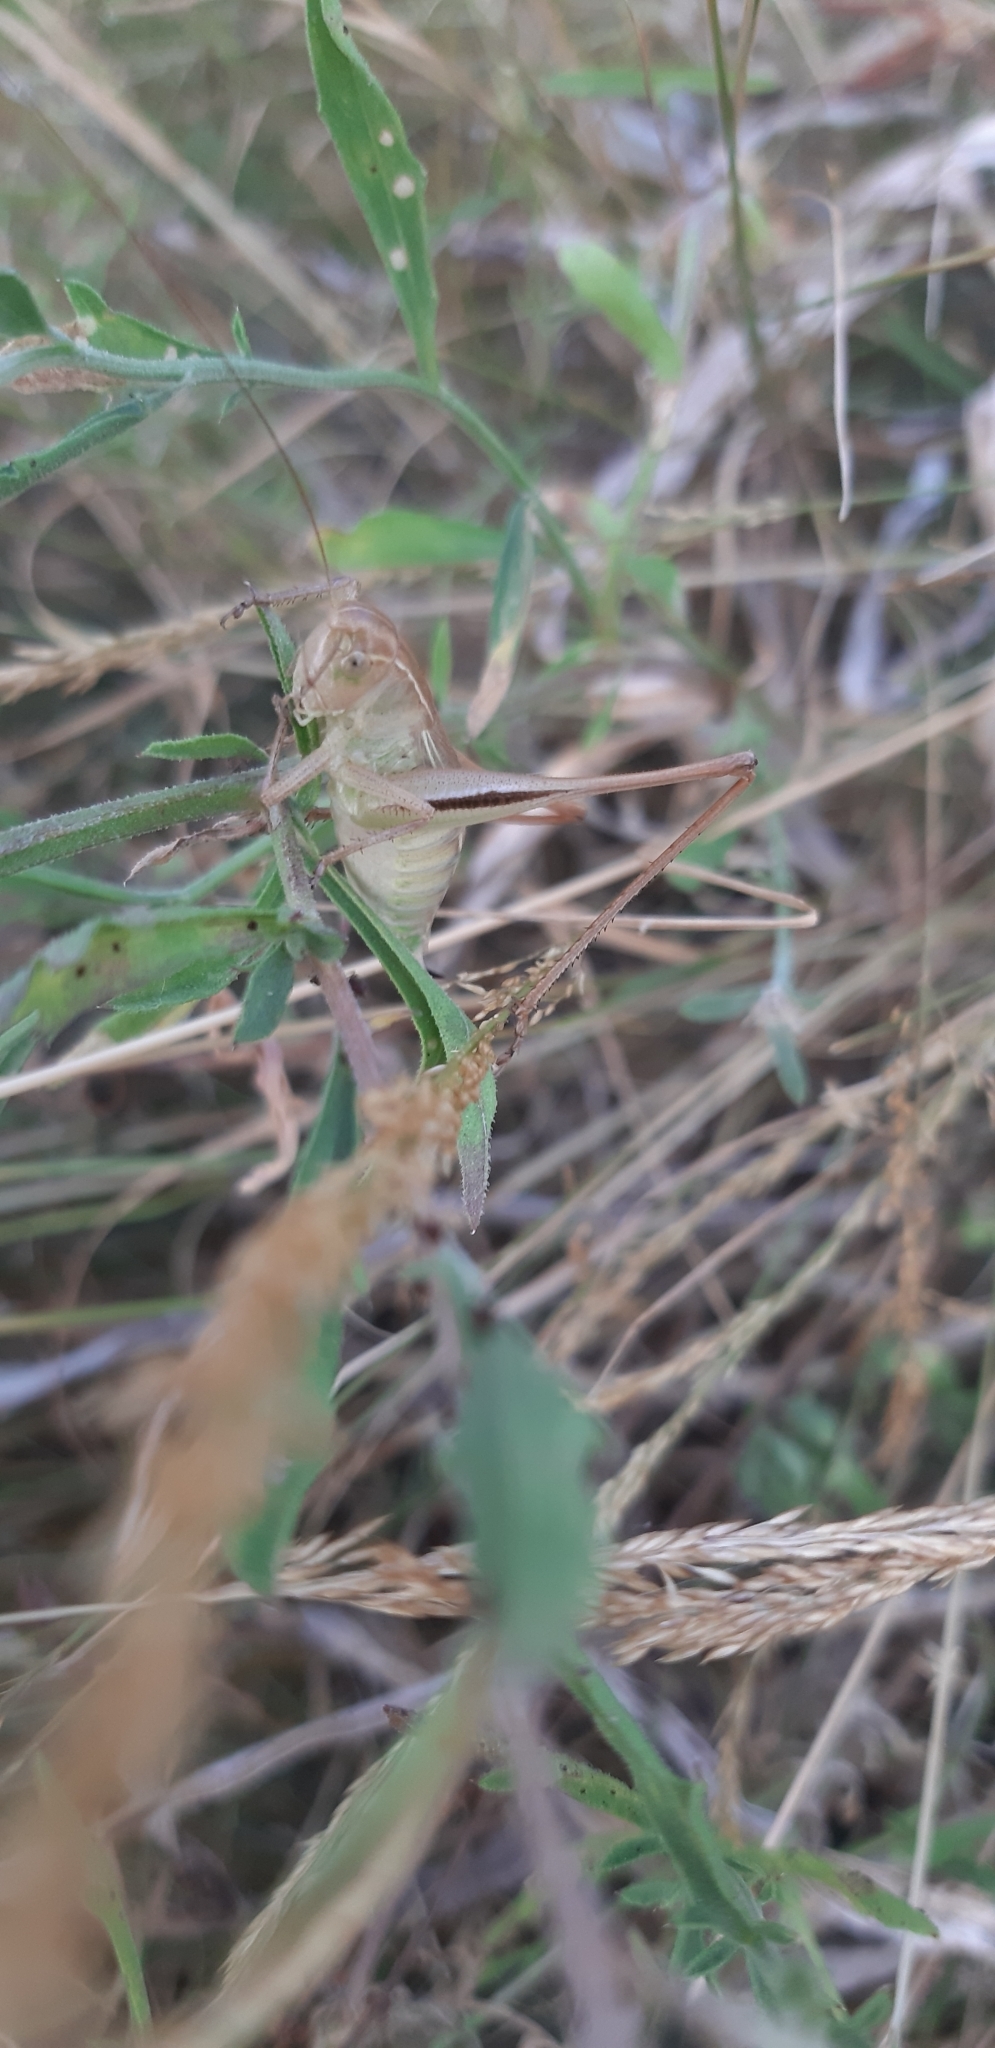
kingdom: Animalia
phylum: Arthropoda
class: Insecta
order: Orthoptera
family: Tettigoniidae
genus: Bicolorana
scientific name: Bicolorana bicolor
